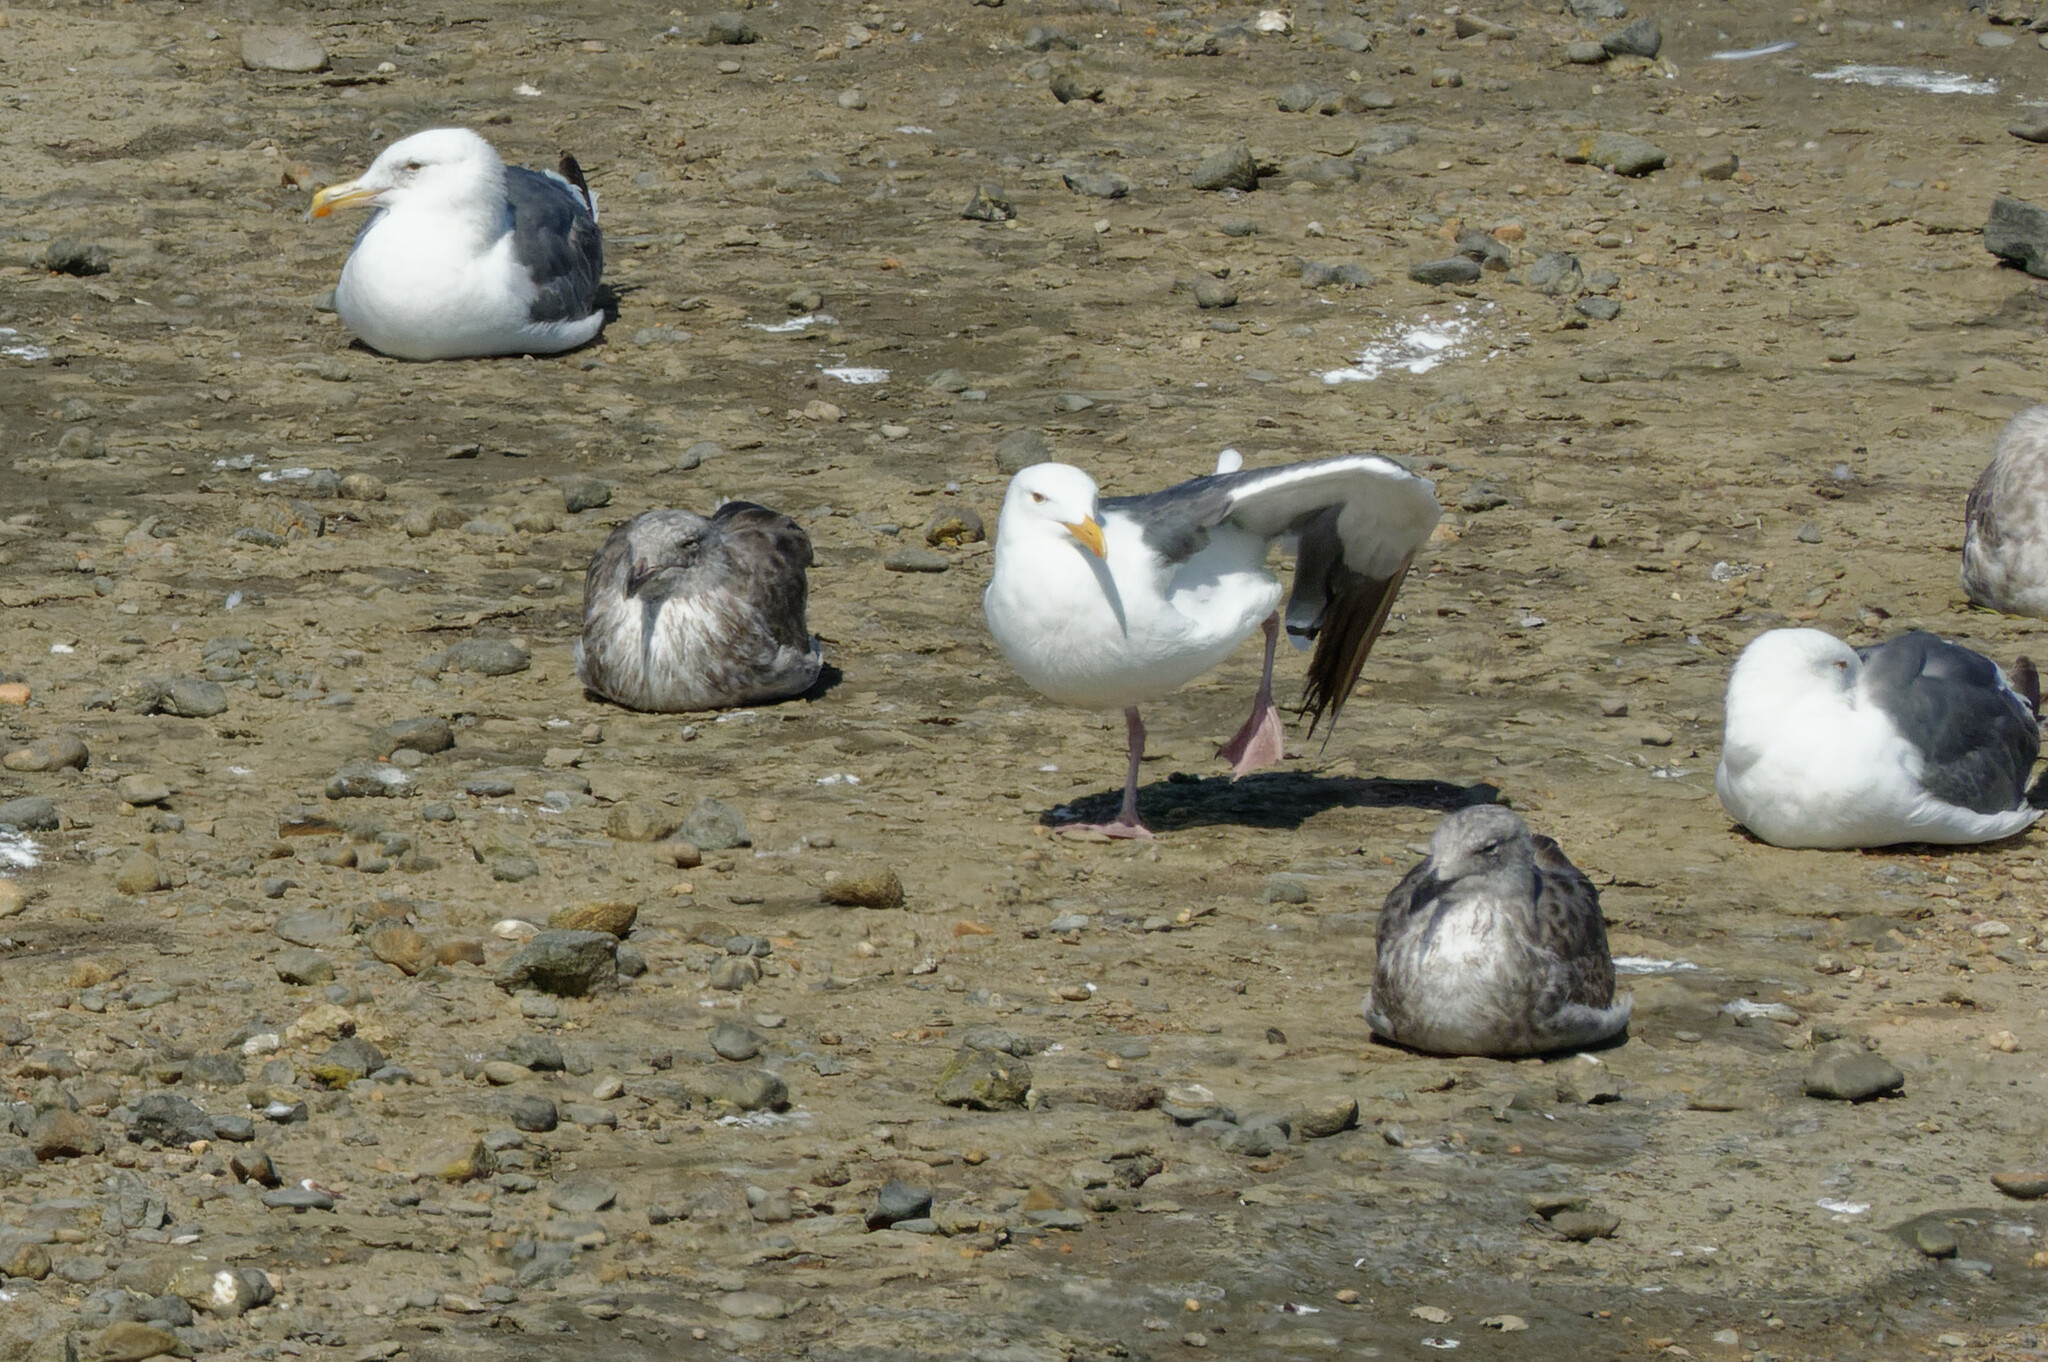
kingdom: Animalia
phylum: Chordata
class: Aves
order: Charadriiformes
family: Laridae
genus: Larus
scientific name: Larus occidentalis
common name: Western gull
